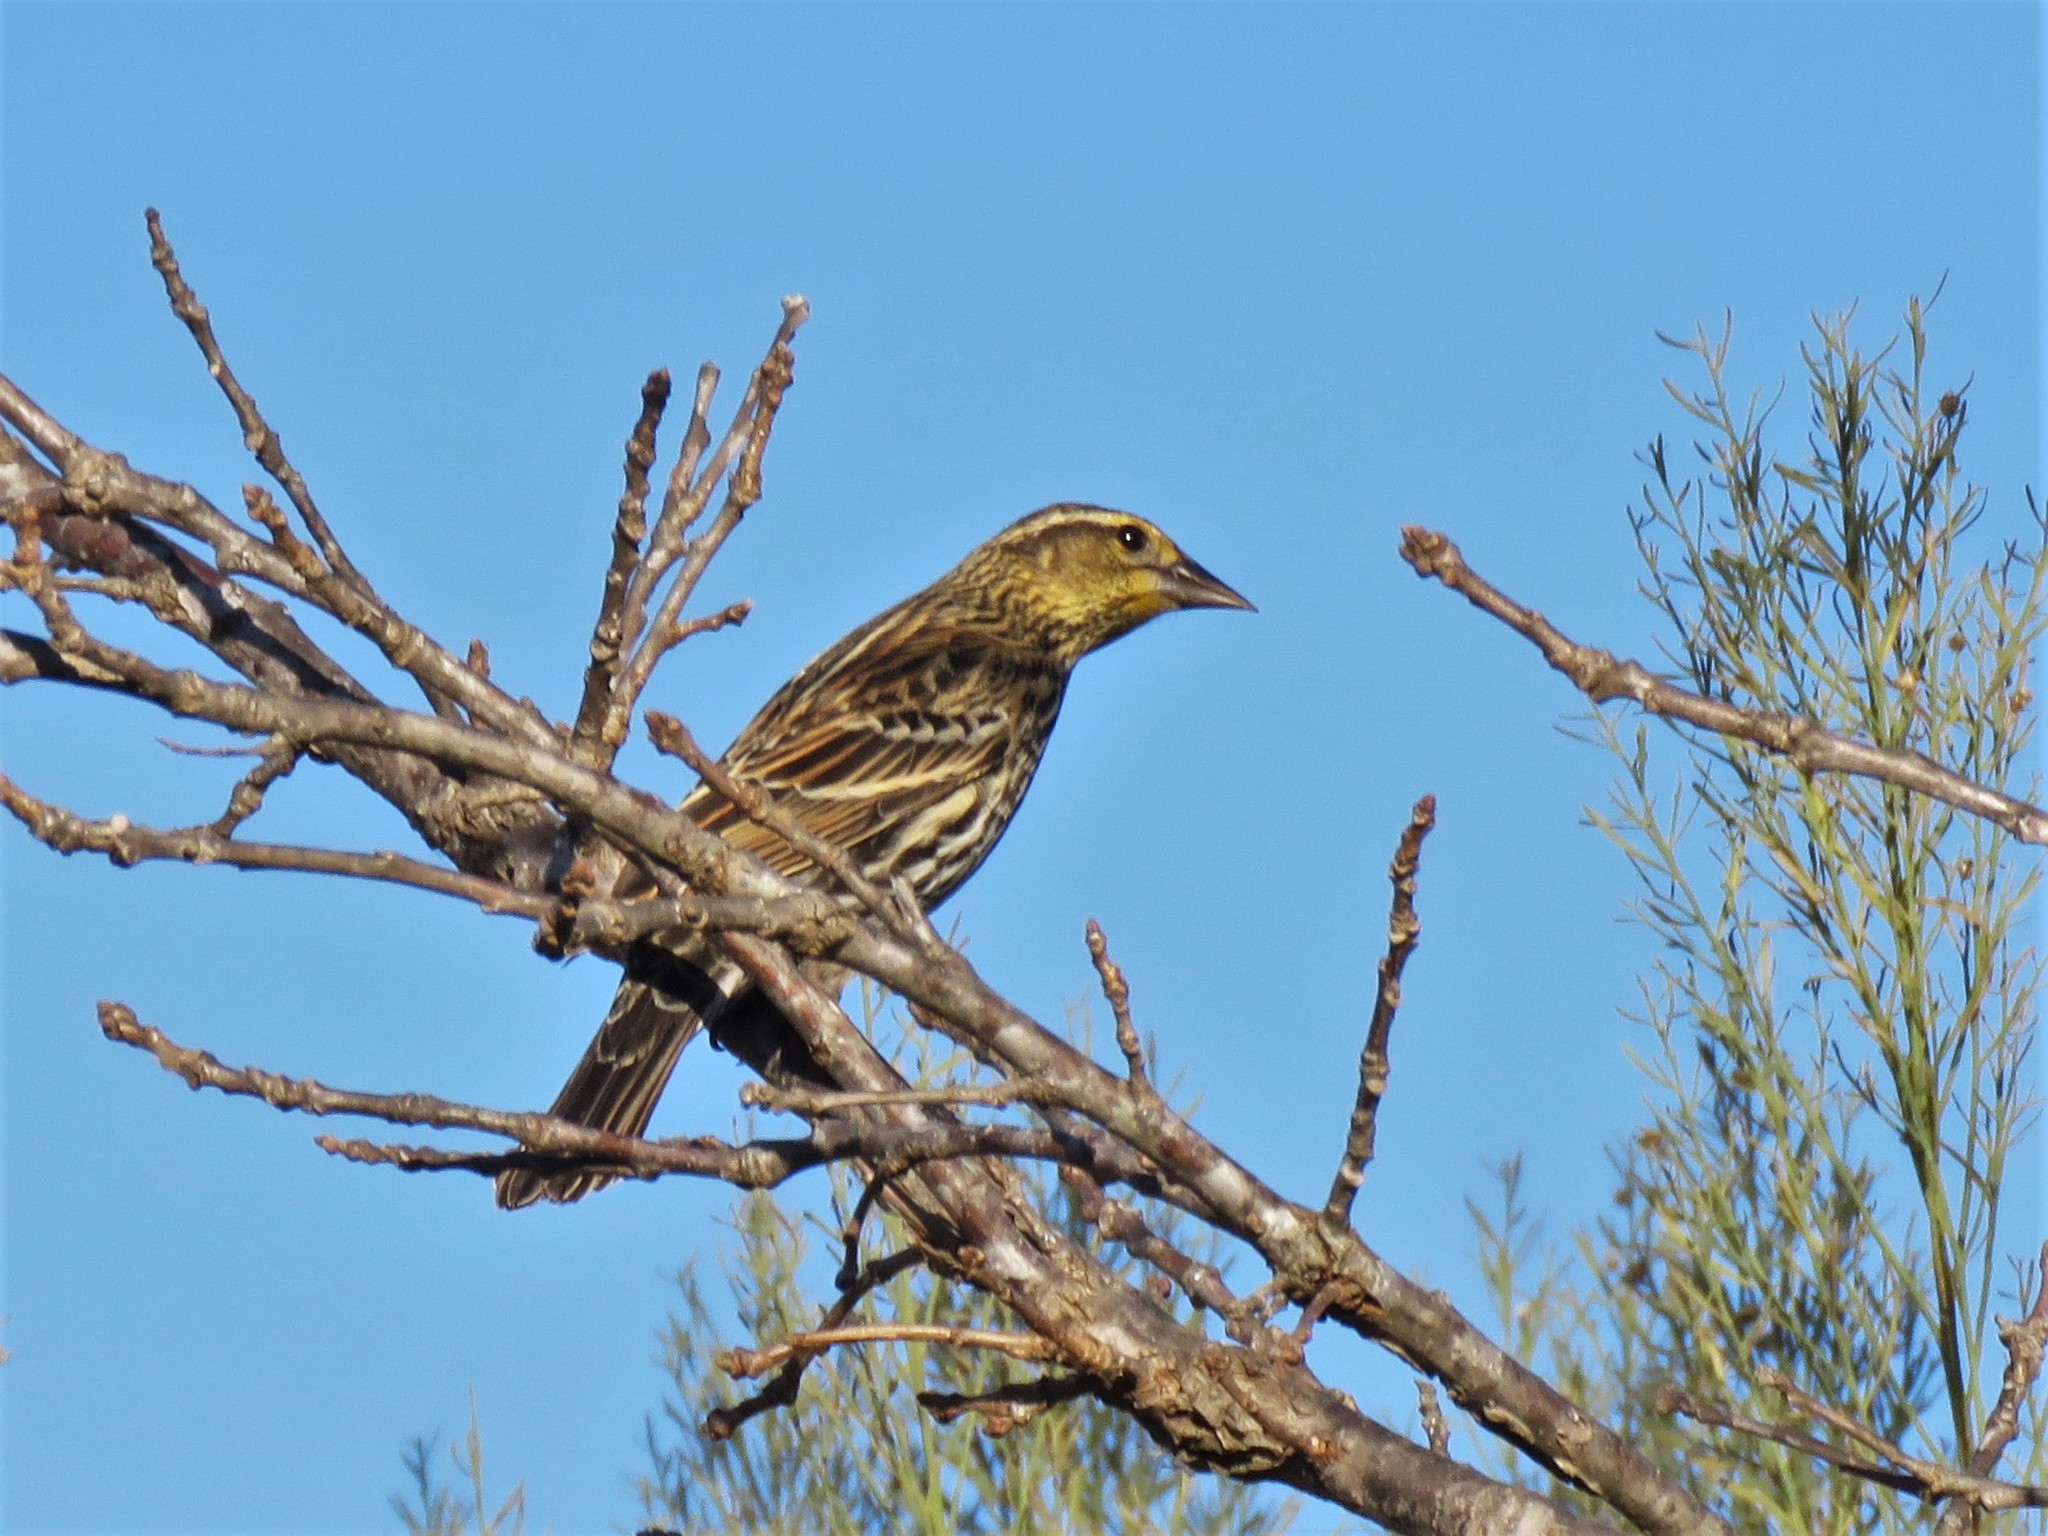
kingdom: Animalia
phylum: Chordata
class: Aves
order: Passeriformes
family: Icteridae
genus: Agelaius
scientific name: Agelaius phoeniceus
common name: Red-winged blackbird
